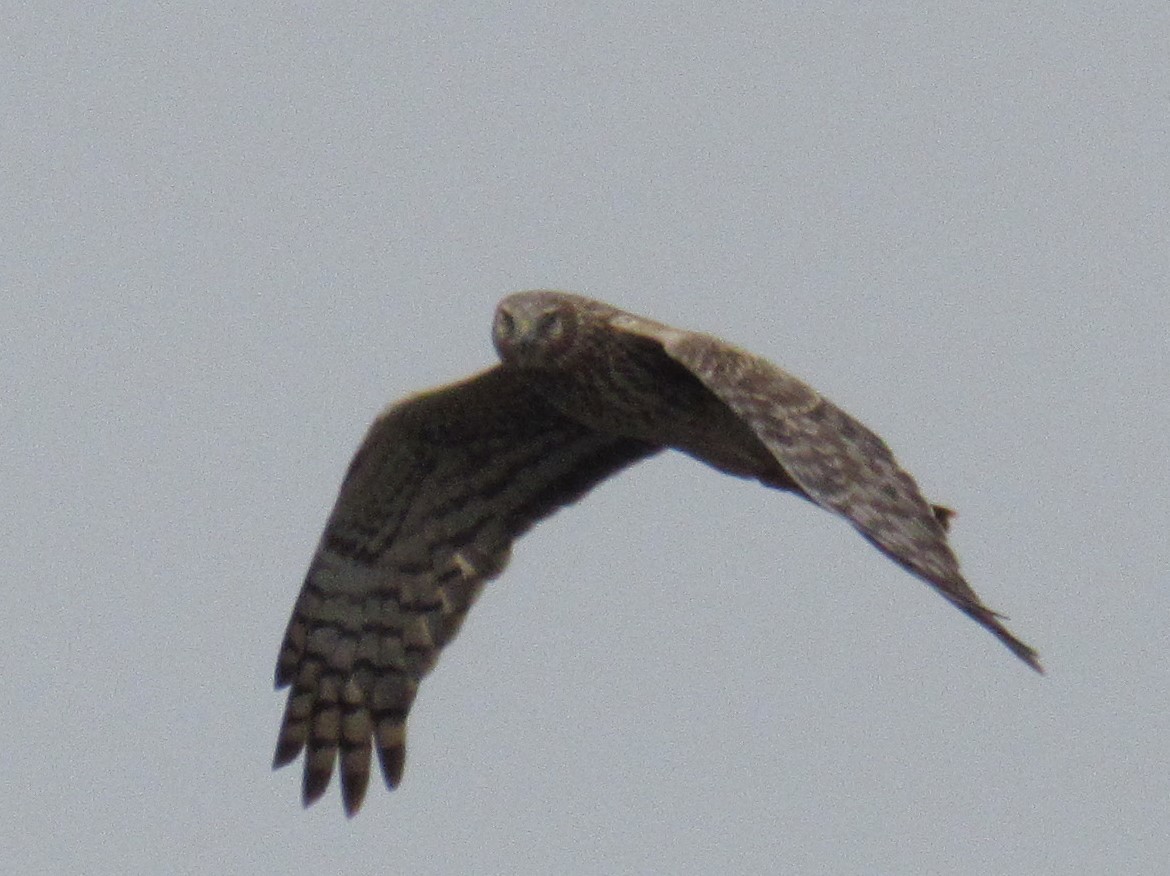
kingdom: Animalia
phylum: Chordata
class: Aves
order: Accipitriformes
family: Accipitridae
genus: Circus
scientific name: Circus cyaneus
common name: Hen harrier
